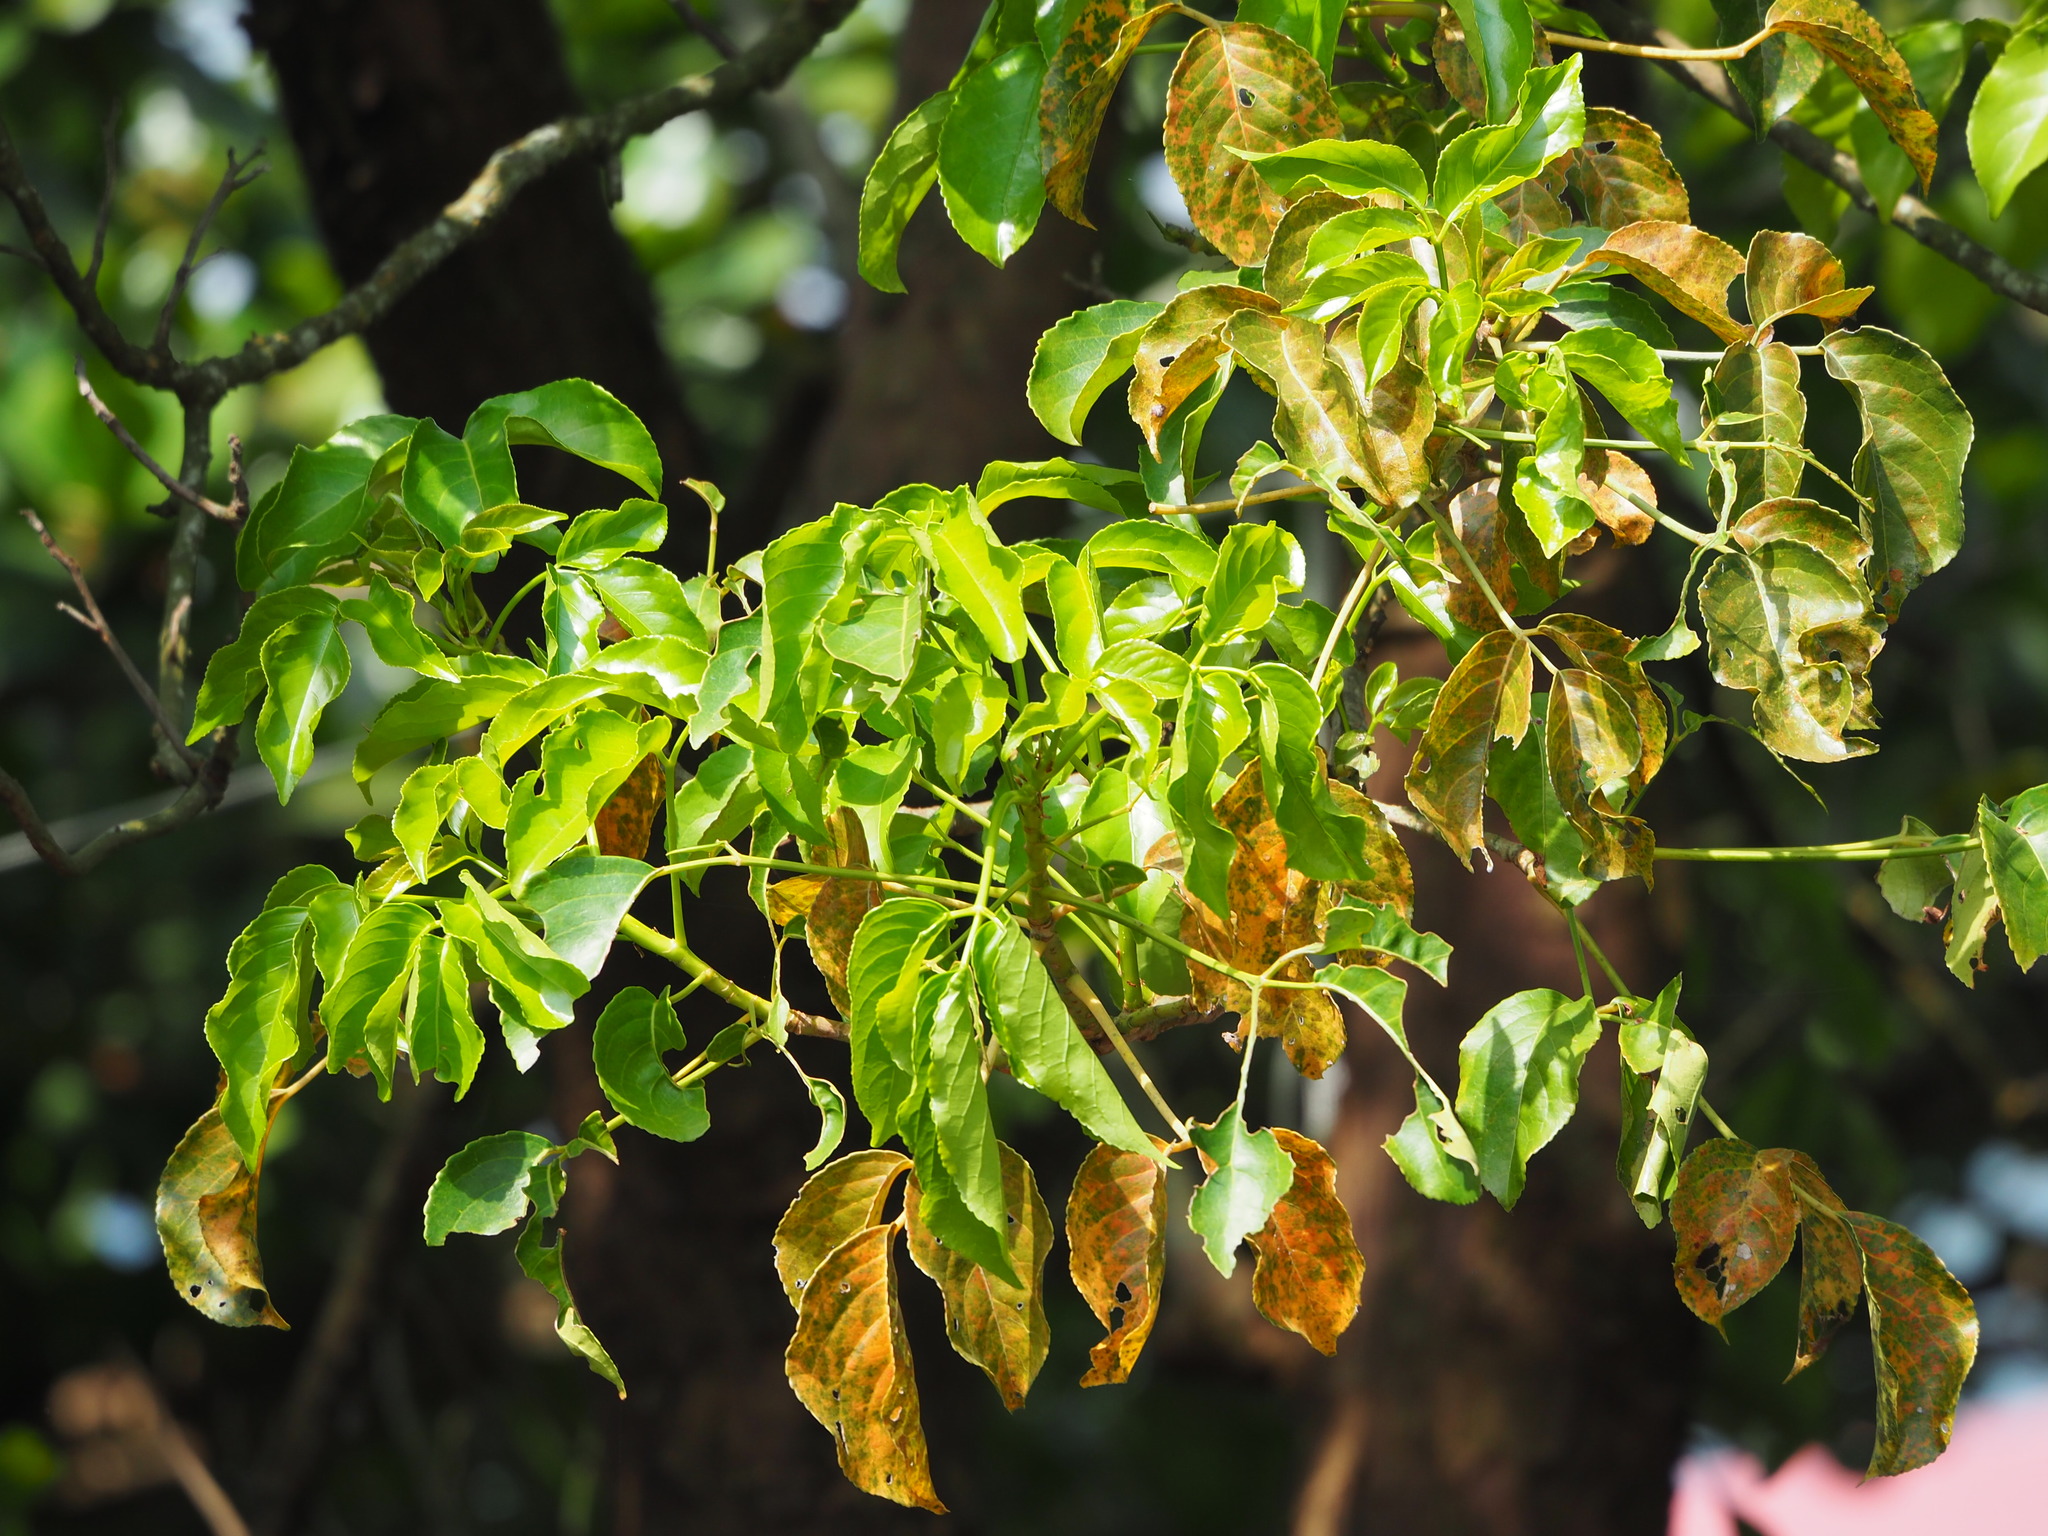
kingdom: Plantae
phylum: Tracheophyta
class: Magnoliopsida
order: Malpighiales
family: Phyllanthaceae
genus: Bischofia
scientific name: Bischofia javanica
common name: Javanese bishopwood
